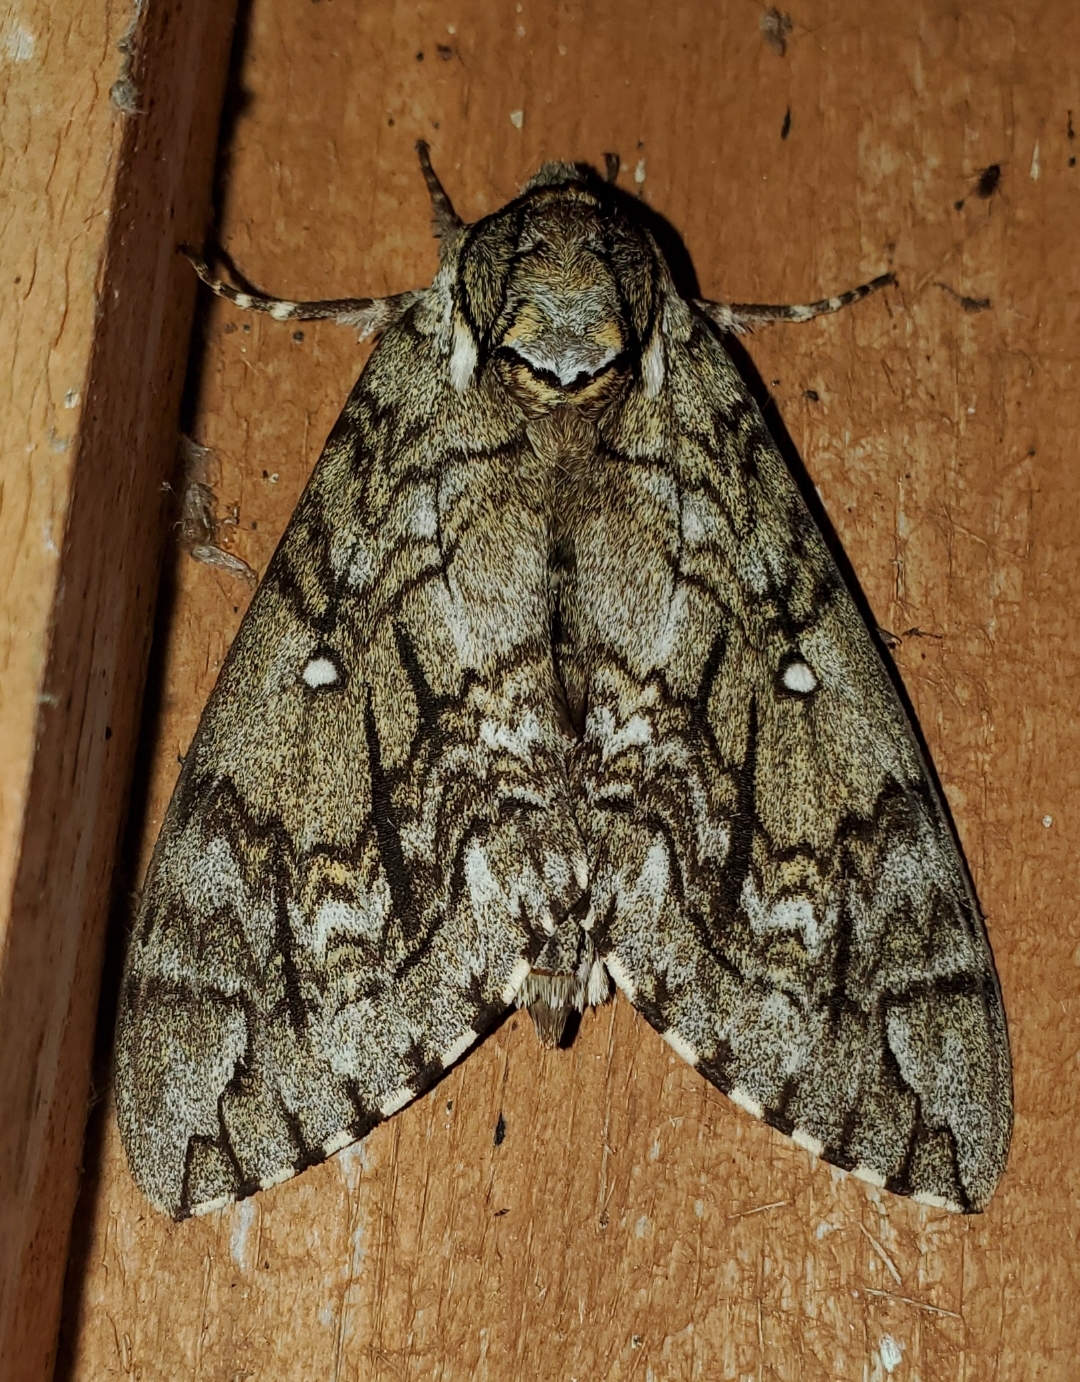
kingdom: Animalia
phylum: Arthropoda
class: Insecta
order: Lepidoptera
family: Sphingidae
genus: Ceratomia
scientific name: Ceratomia undulosa
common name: Waved sphinx
